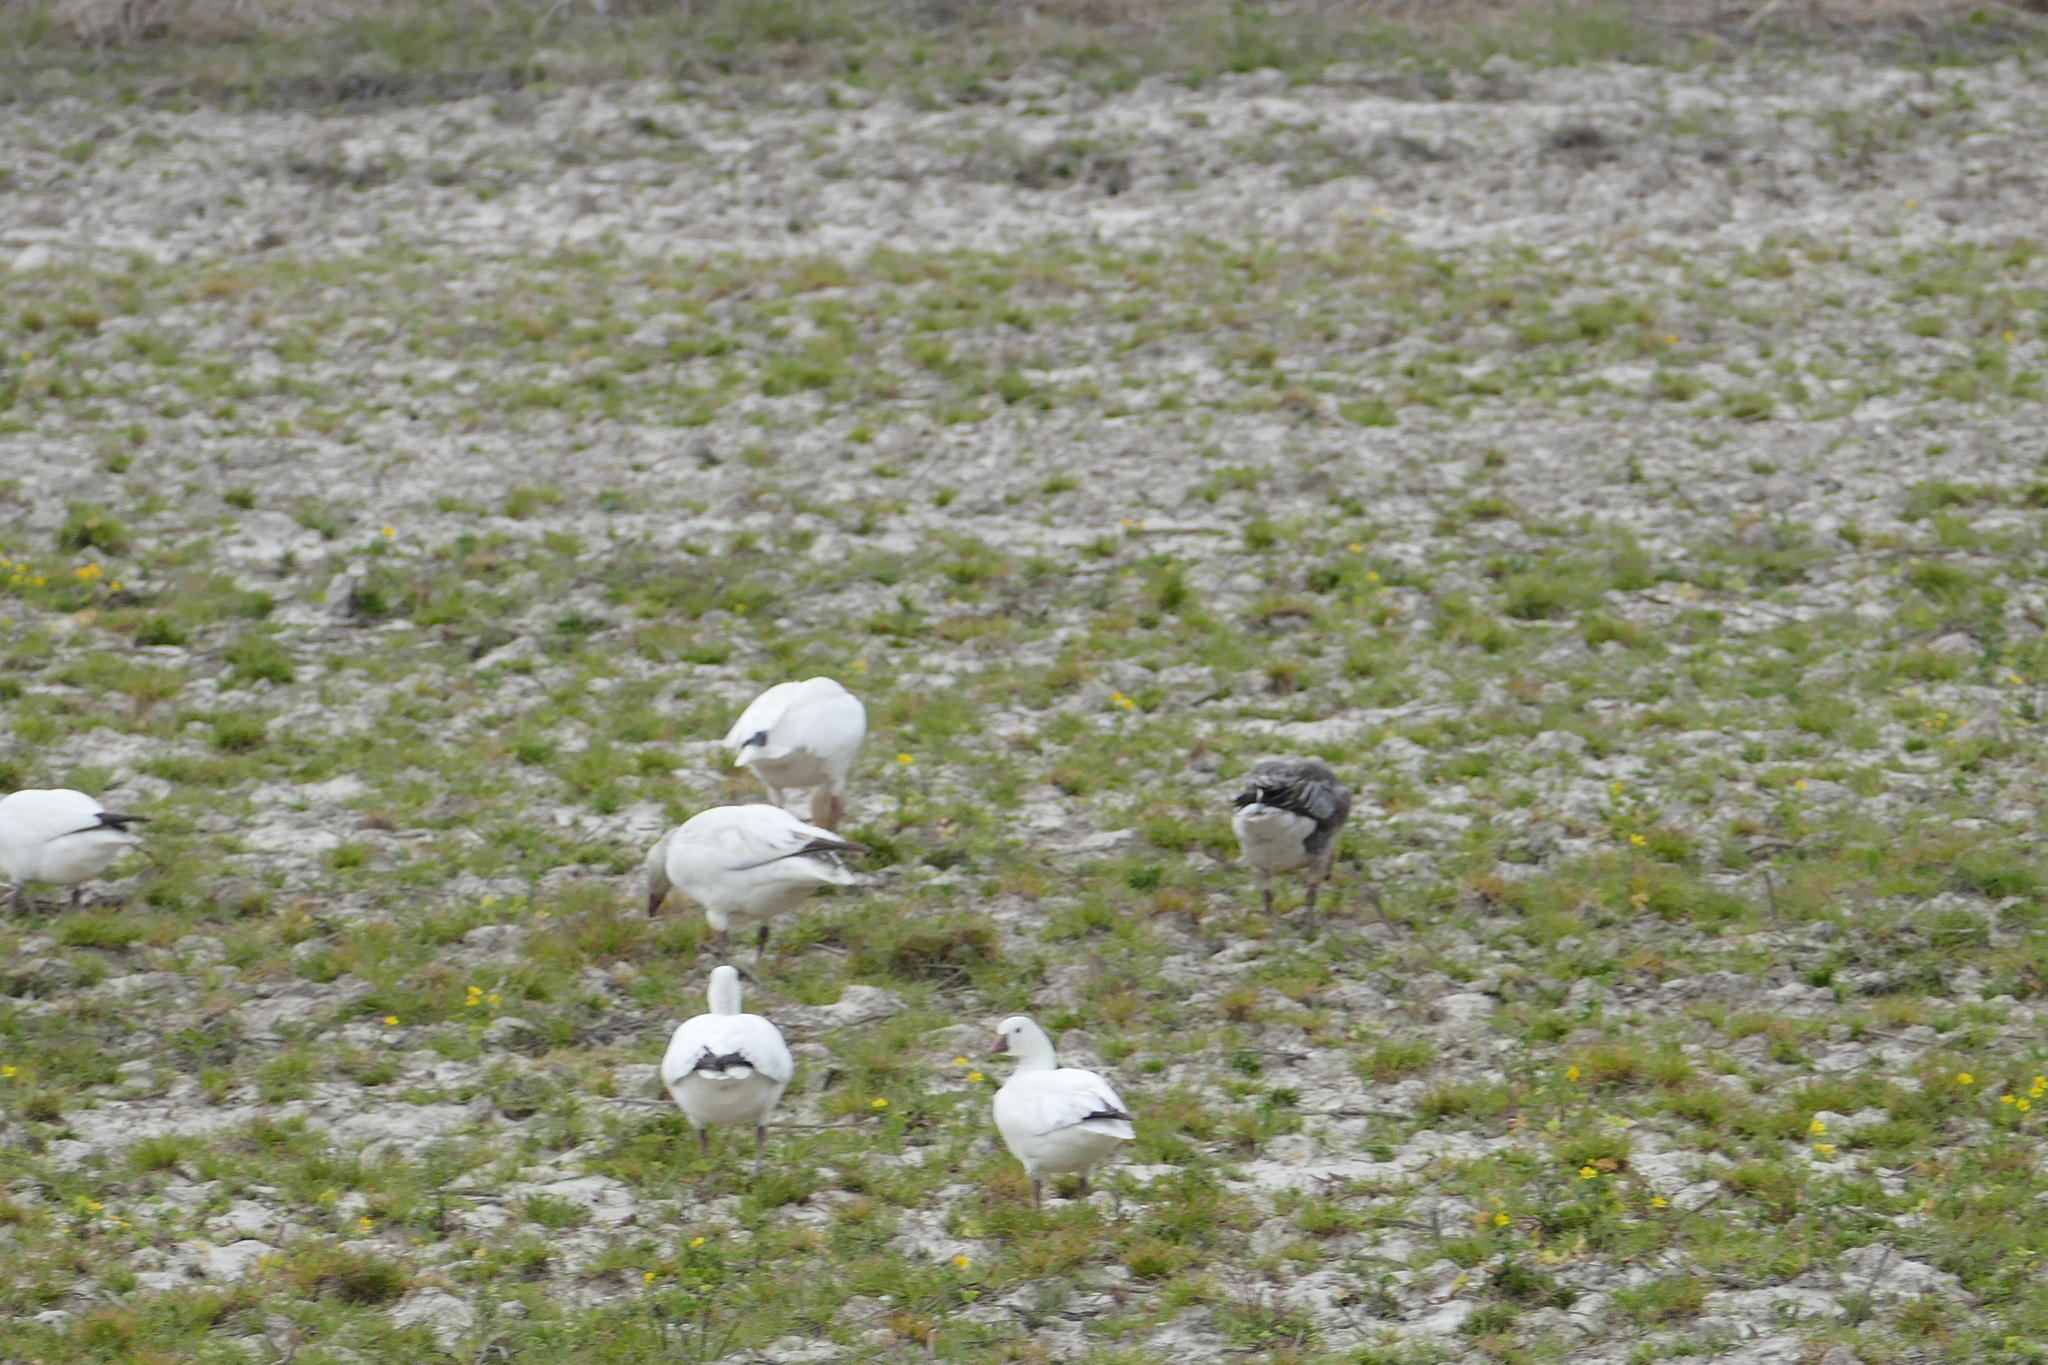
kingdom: Animalia
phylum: Chordata
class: Aves
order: Anseriformes
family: Anatidae
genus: Anser
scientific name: Anser rossii
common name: Ross's goose
